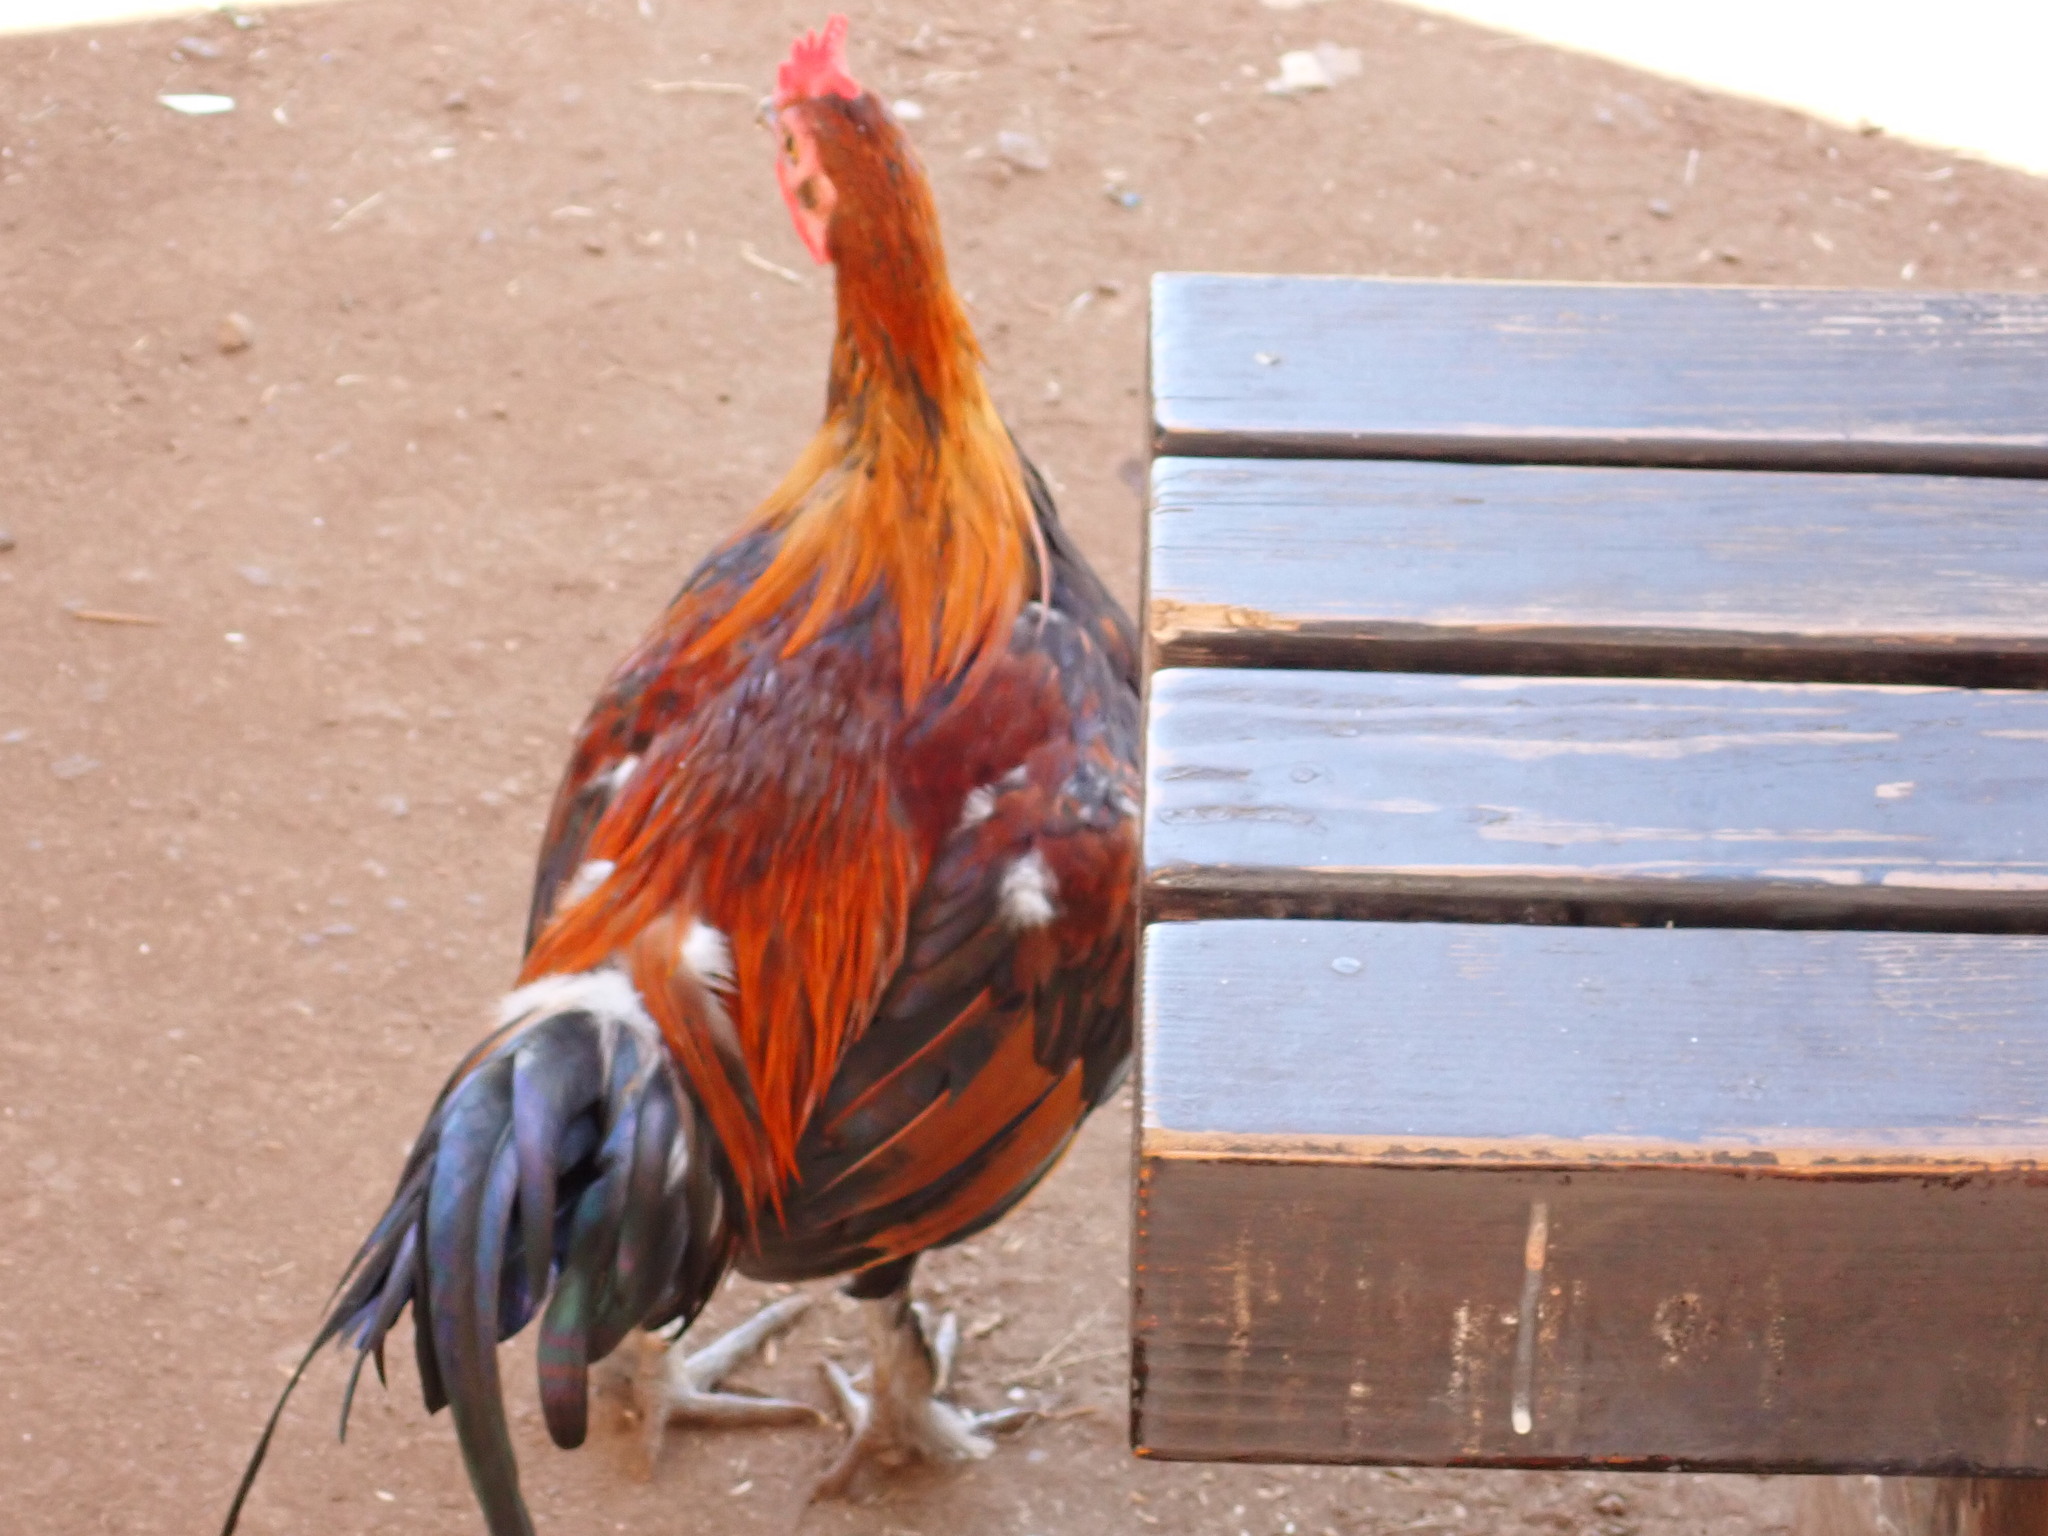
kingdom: Animalia
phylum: Chordata
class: Aves
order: Galliformes
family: Phasianidae
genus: Gallus
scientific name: Gallus gallus
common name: Red junglefowl
